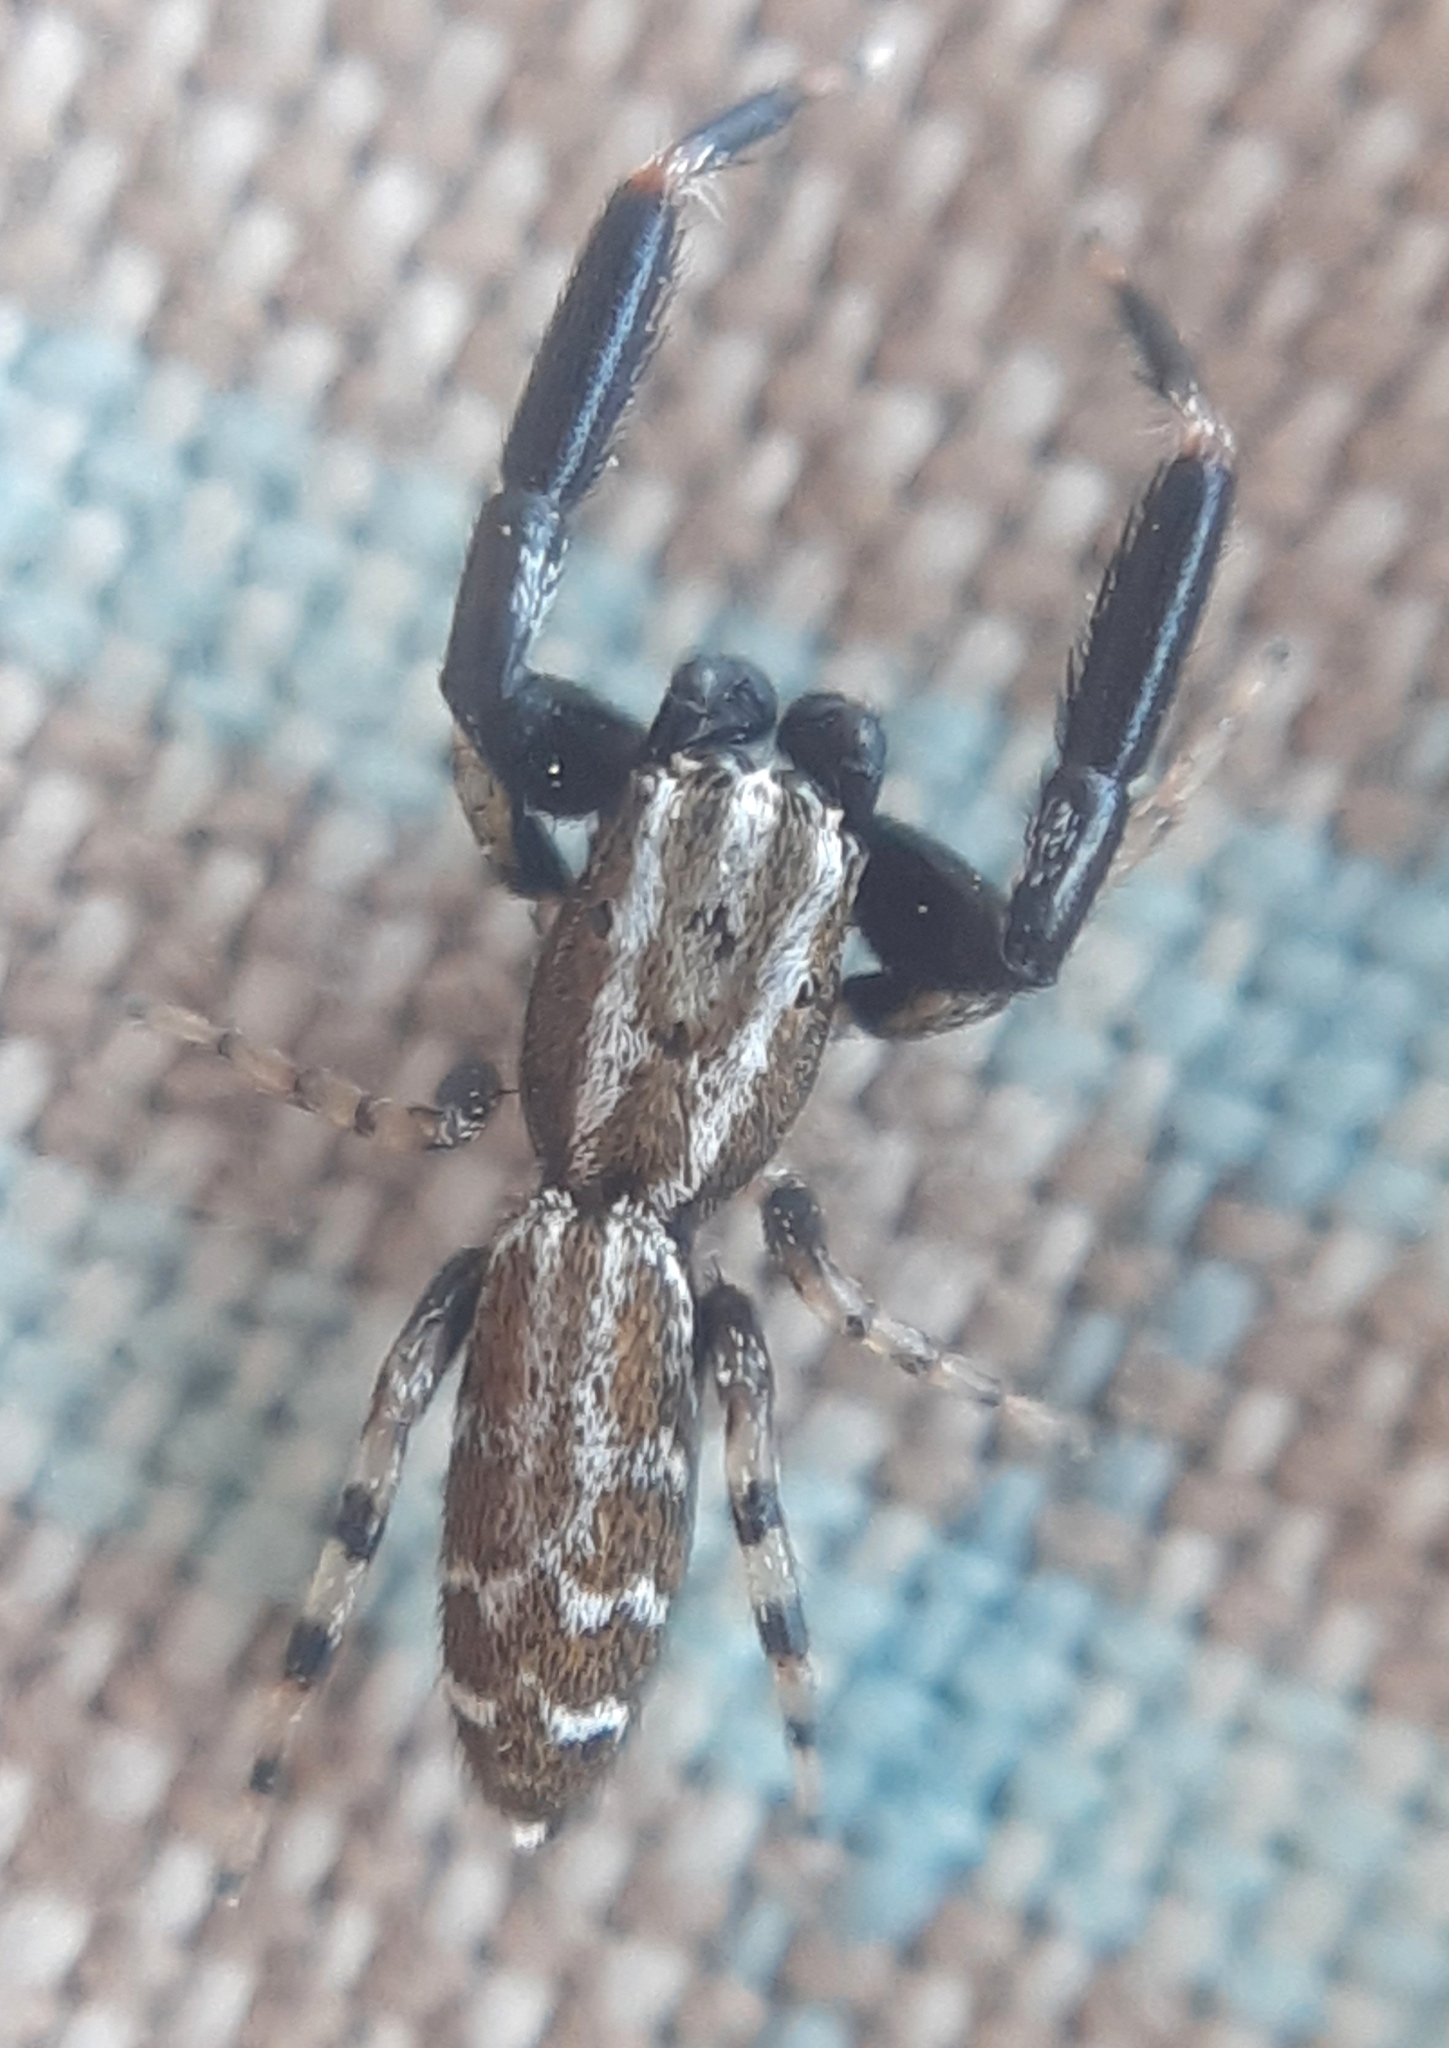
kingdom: Animalia
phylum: Arthropoda
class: Arachnida
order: Araneae
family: Salticidae
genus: Marpissa
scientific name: Marpissa nivoyi
